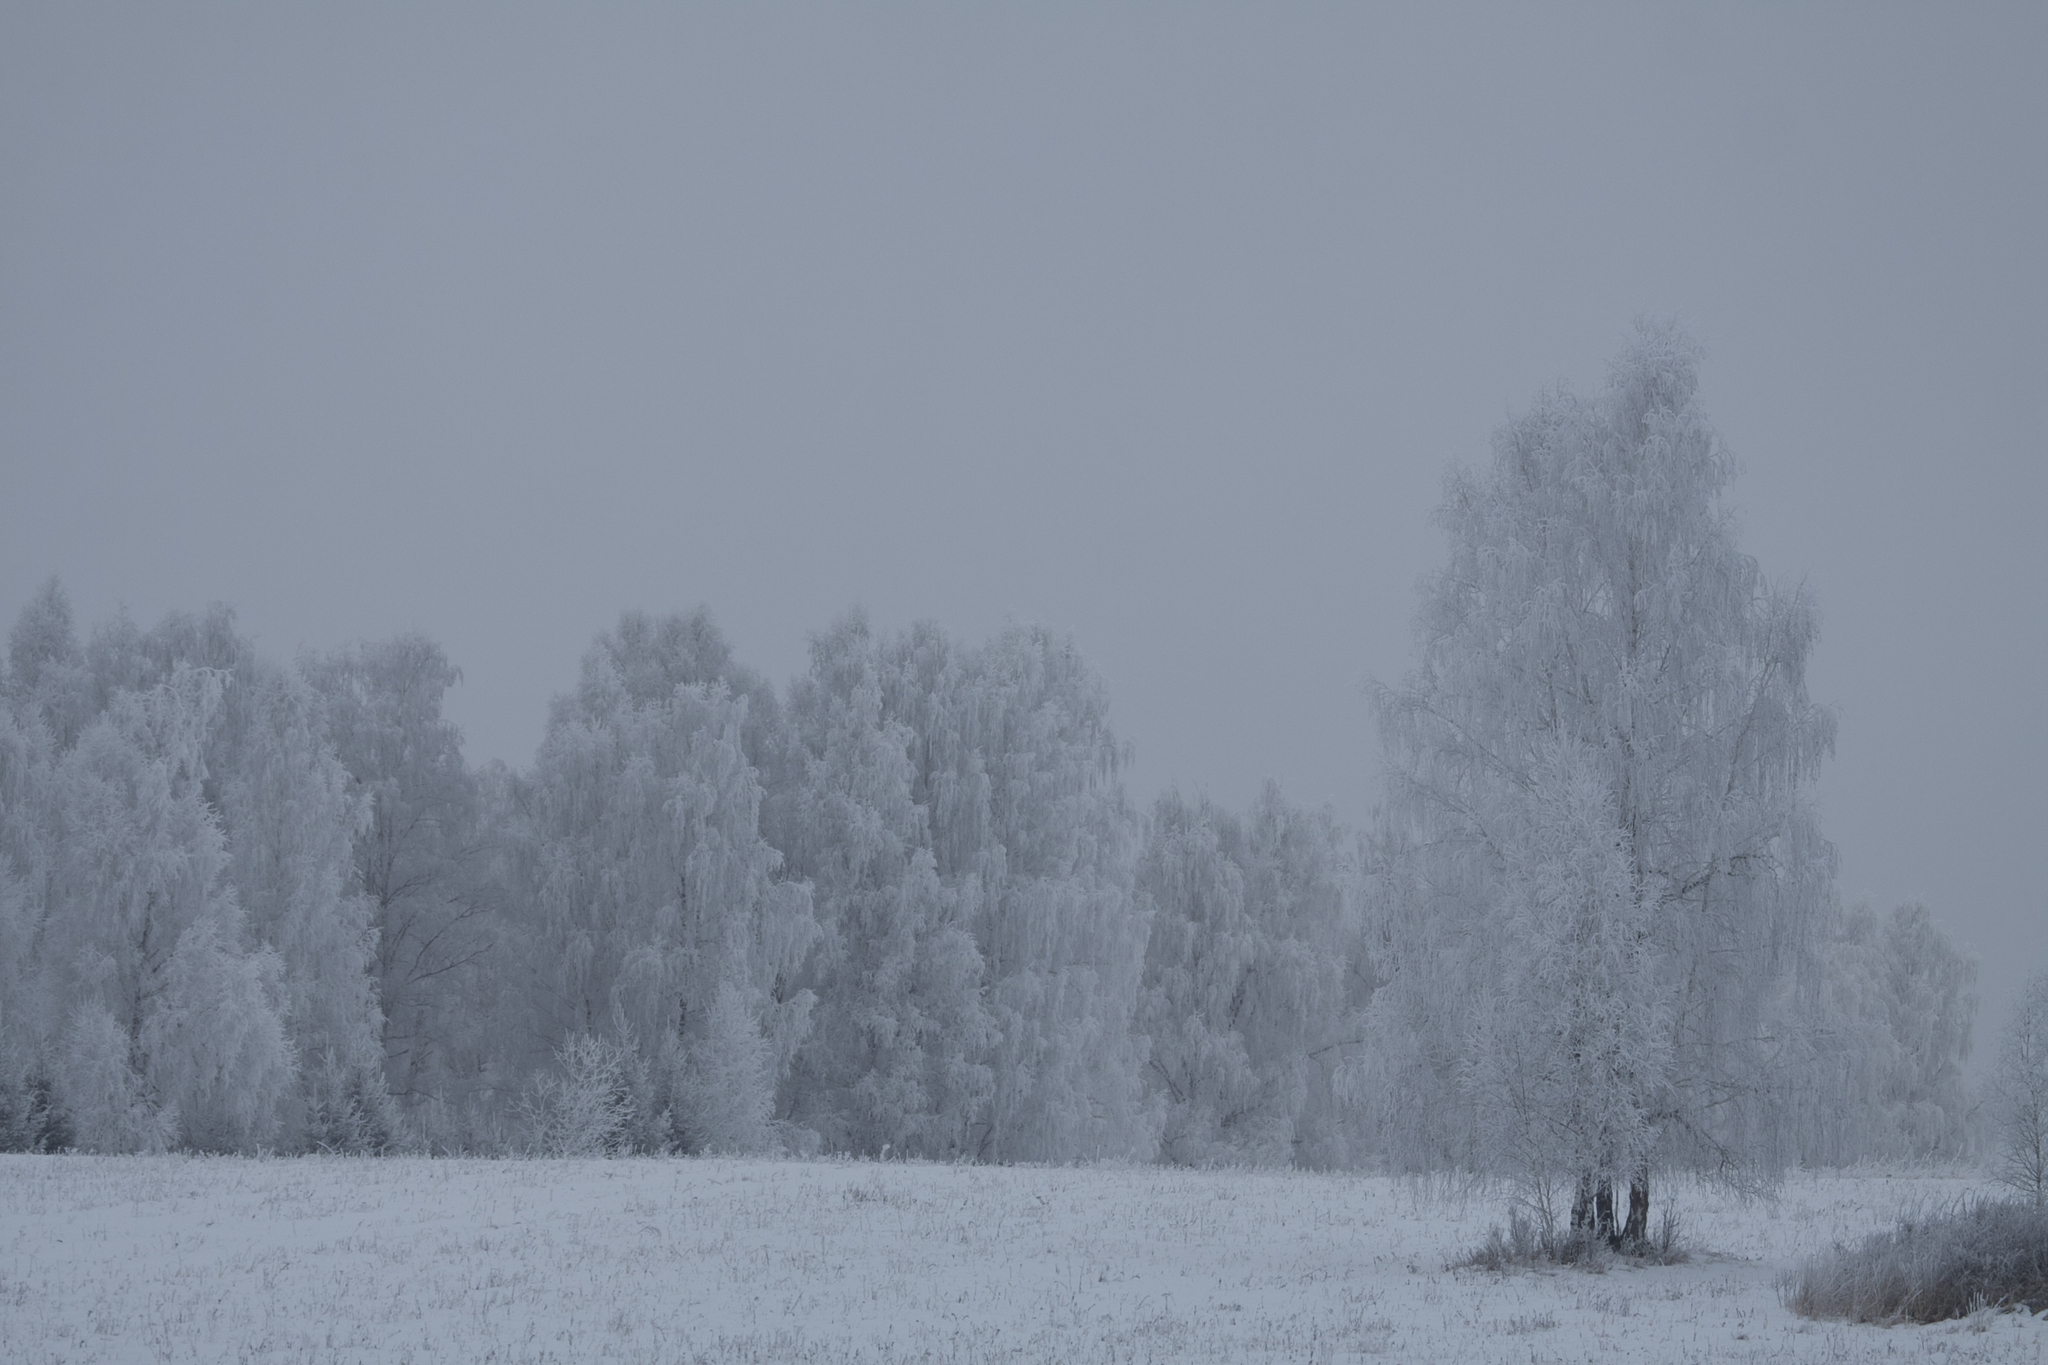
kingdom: Plantae
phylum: Tracheophyta
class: Magnoliopsida
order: Fagales
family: Betulaceae
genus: Betula
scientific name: Betula pendula
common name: Silver birch
